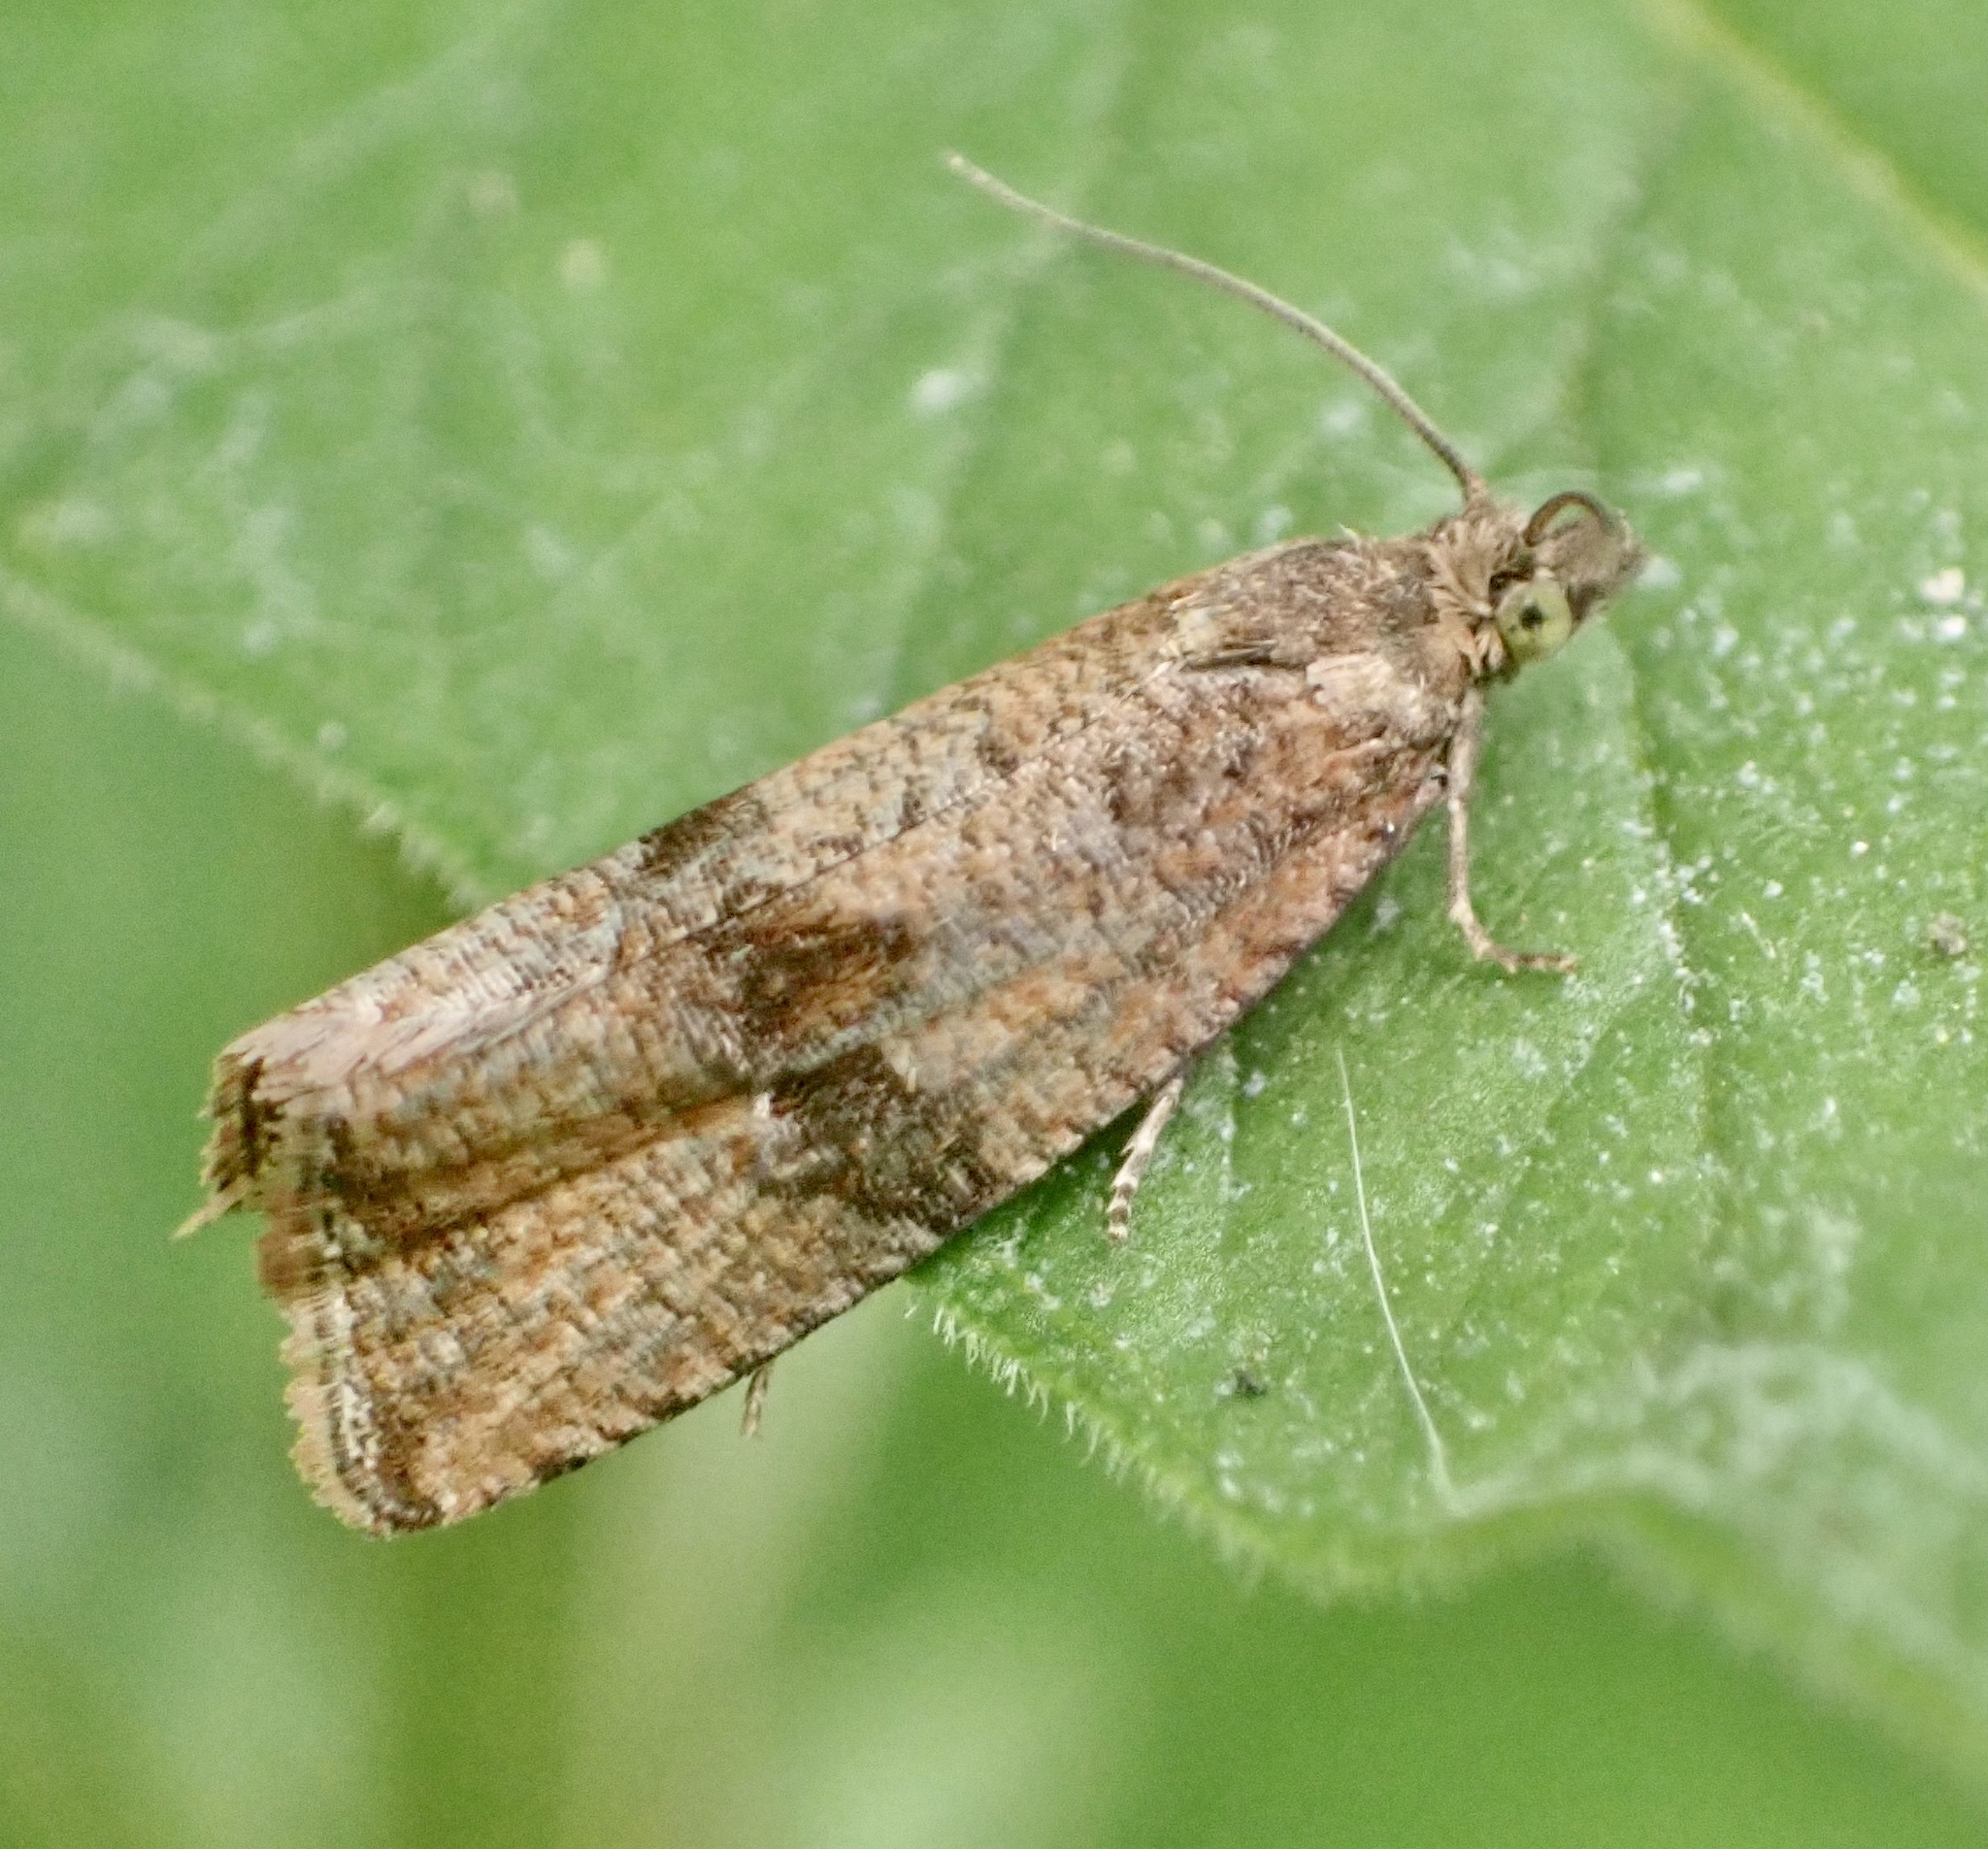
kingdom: Animalia
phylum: Arthropoda
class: Insecta
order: Lepidoptera
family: Tortricidae
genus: Celypha
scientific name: Celypha striana
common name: Barred marble
